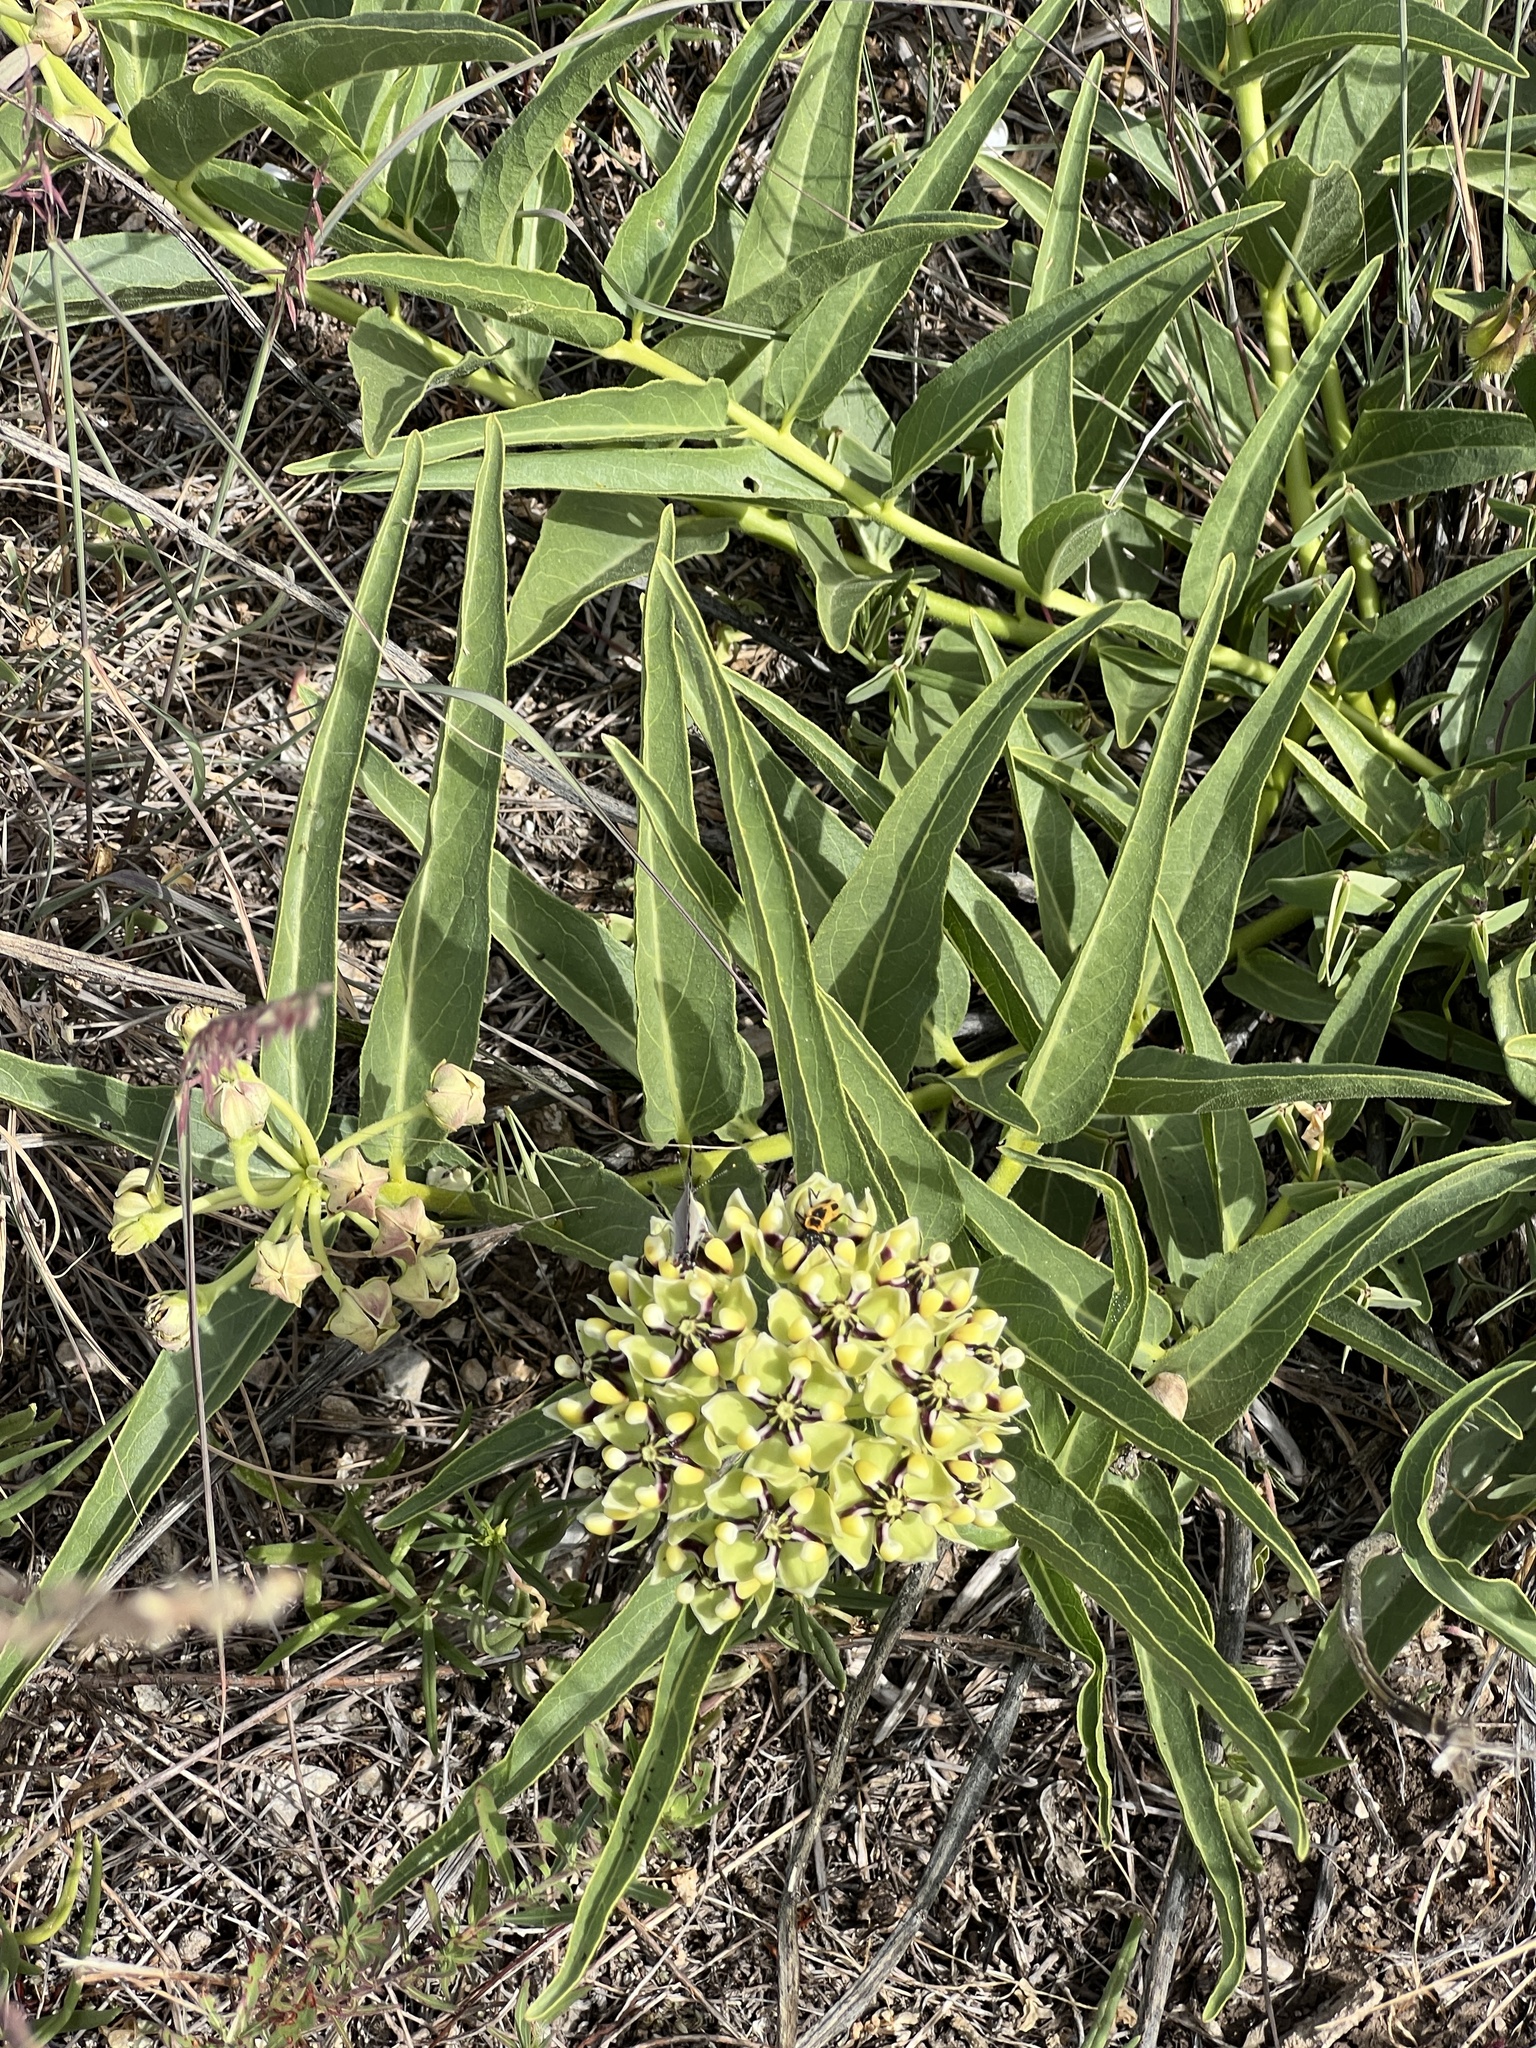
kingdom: Plantae
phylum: Tracheophyta
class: Magnoliopsida
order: Gentianales
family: Apocynaceae
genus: Asclepias
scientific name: Asclepias asperula
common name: Antelope horns
